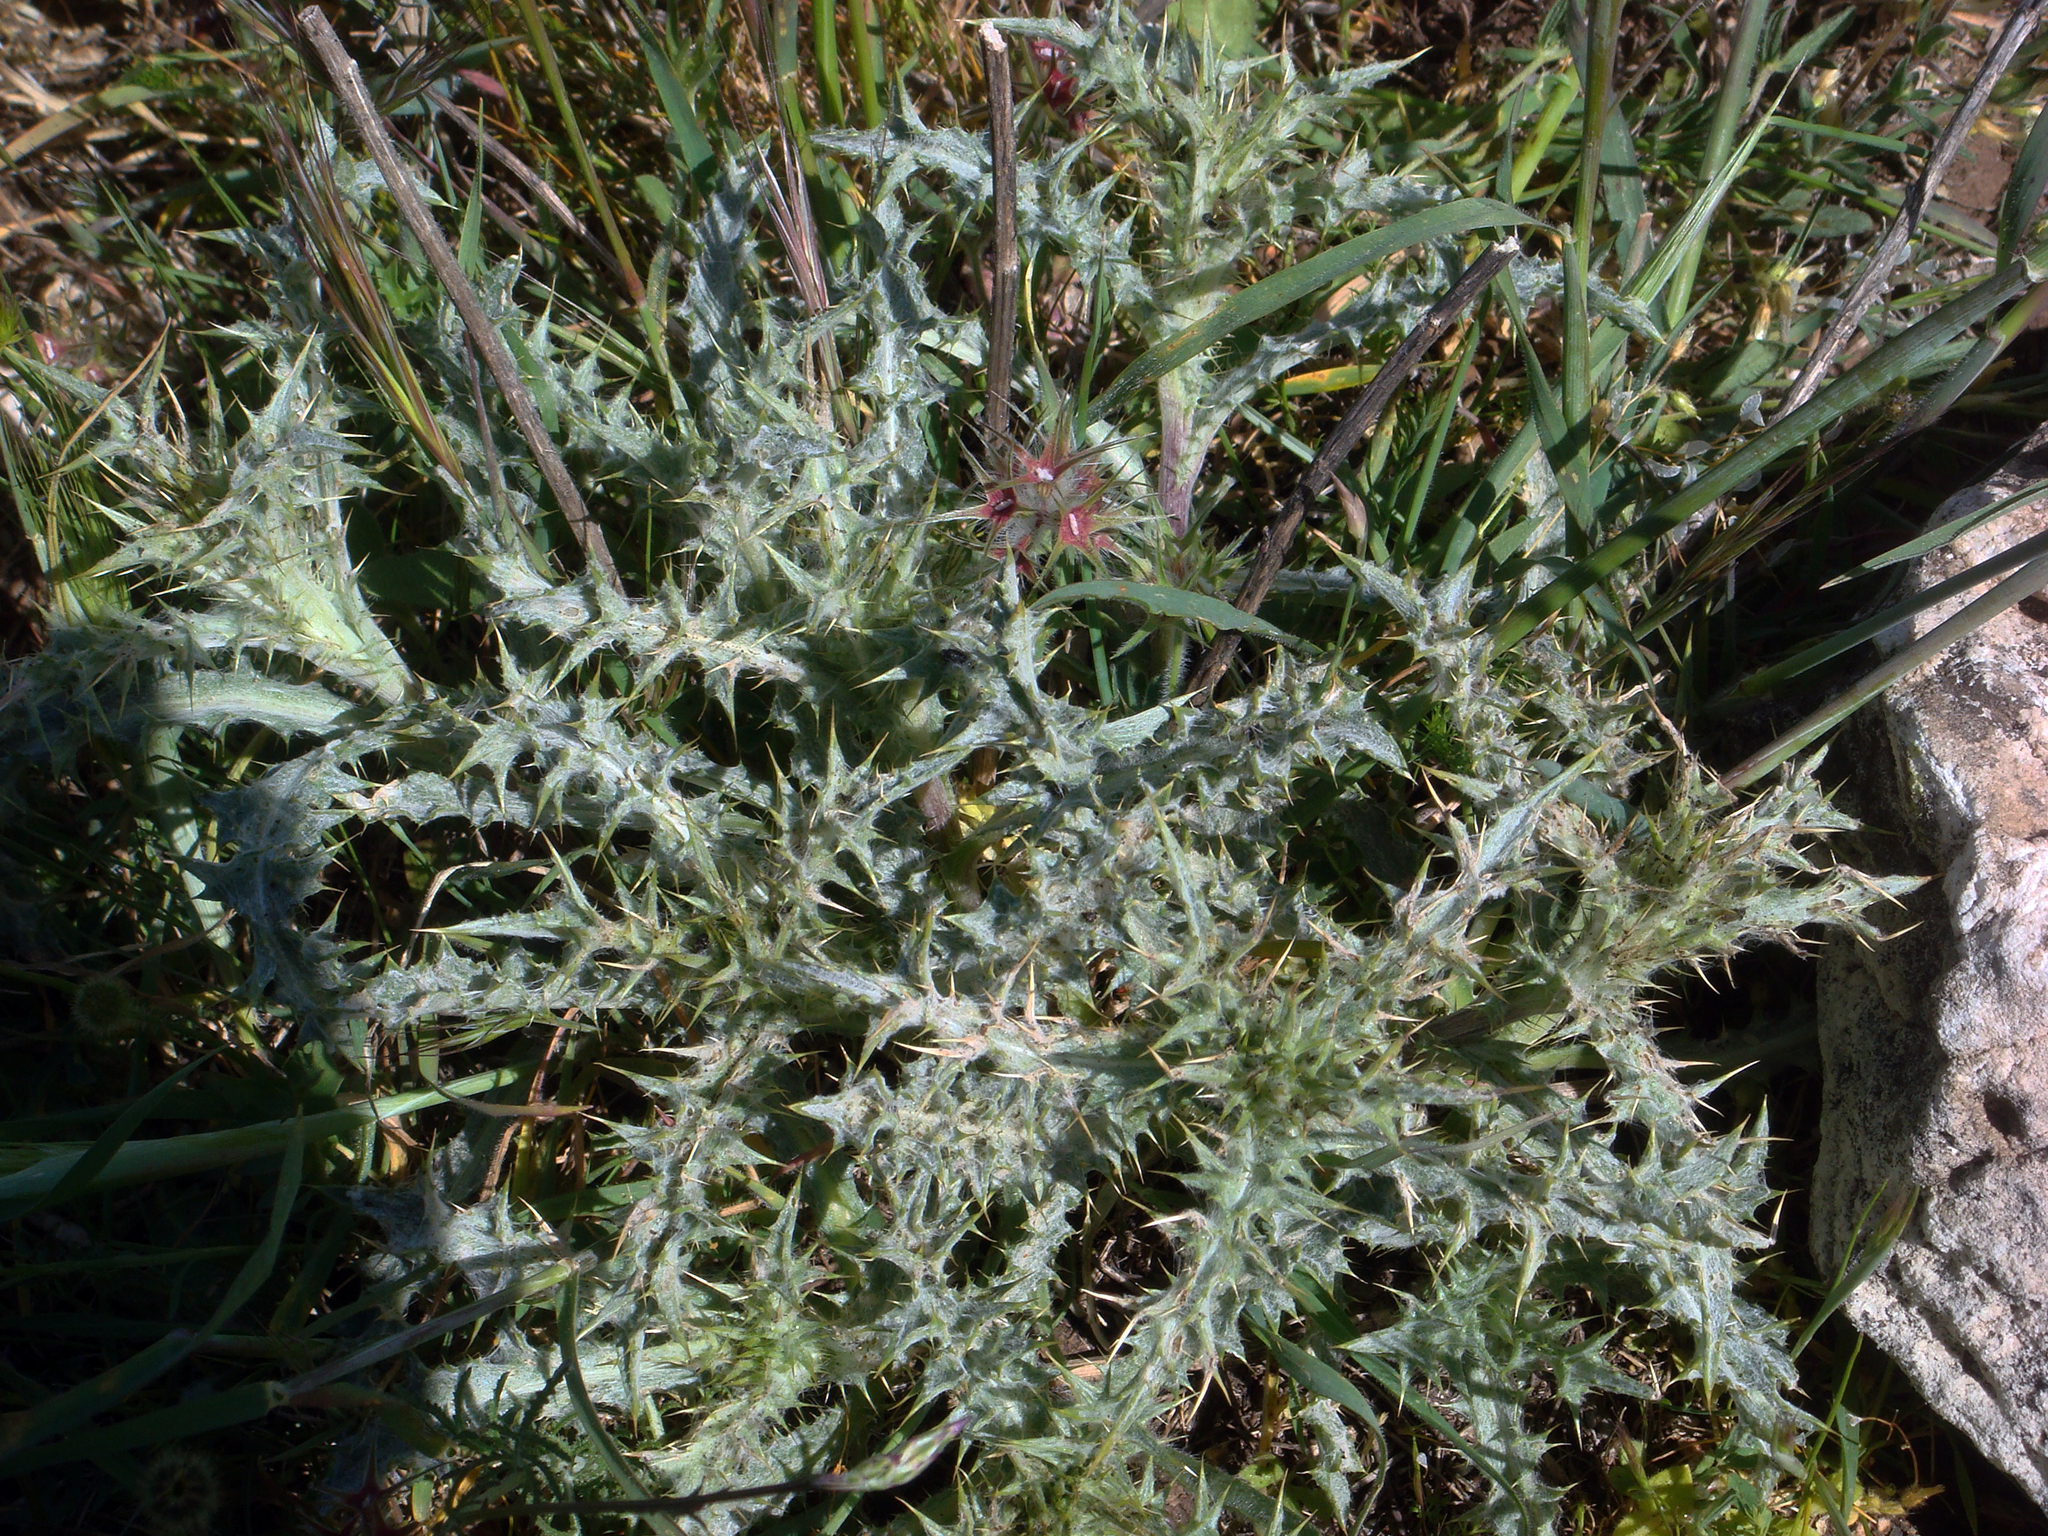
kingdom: Plantae
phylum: Tracheophyta
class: Magnoliopsida
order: Asterales
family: Asteraceae
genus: Carlina
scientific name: Carlina lanata
